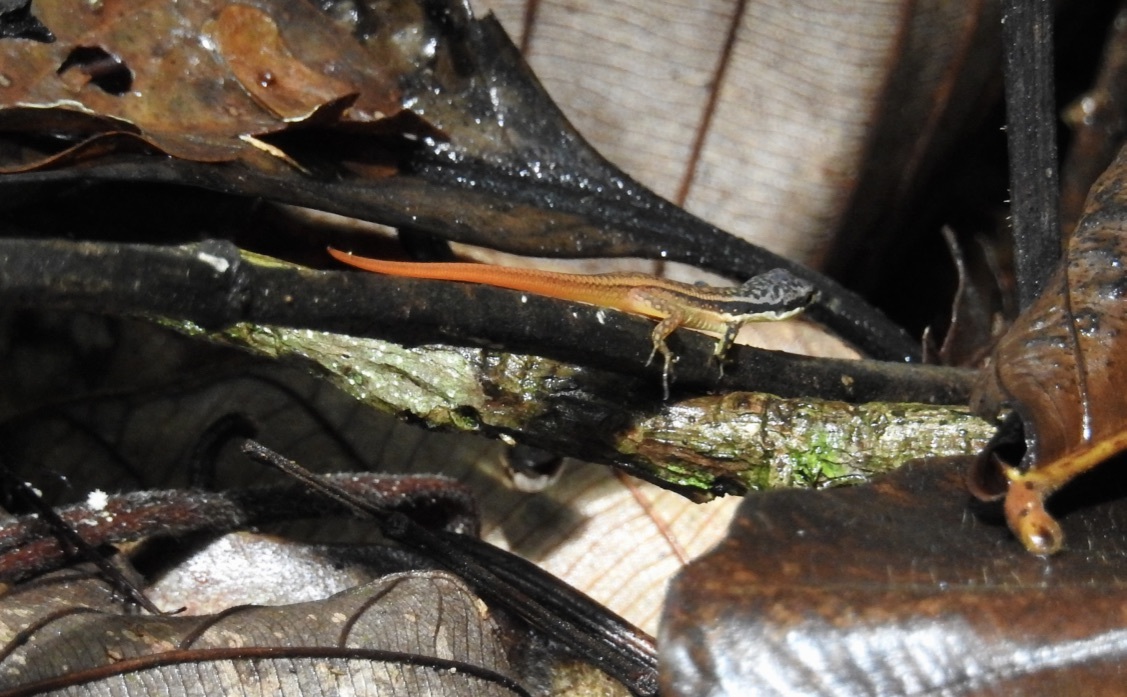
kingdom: Animalia
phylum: Chordata
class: Squamata
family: Gymnophthalmidae
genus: Cercosaura
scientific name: Cercosaura argulus
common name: White-lipped cercosaura
